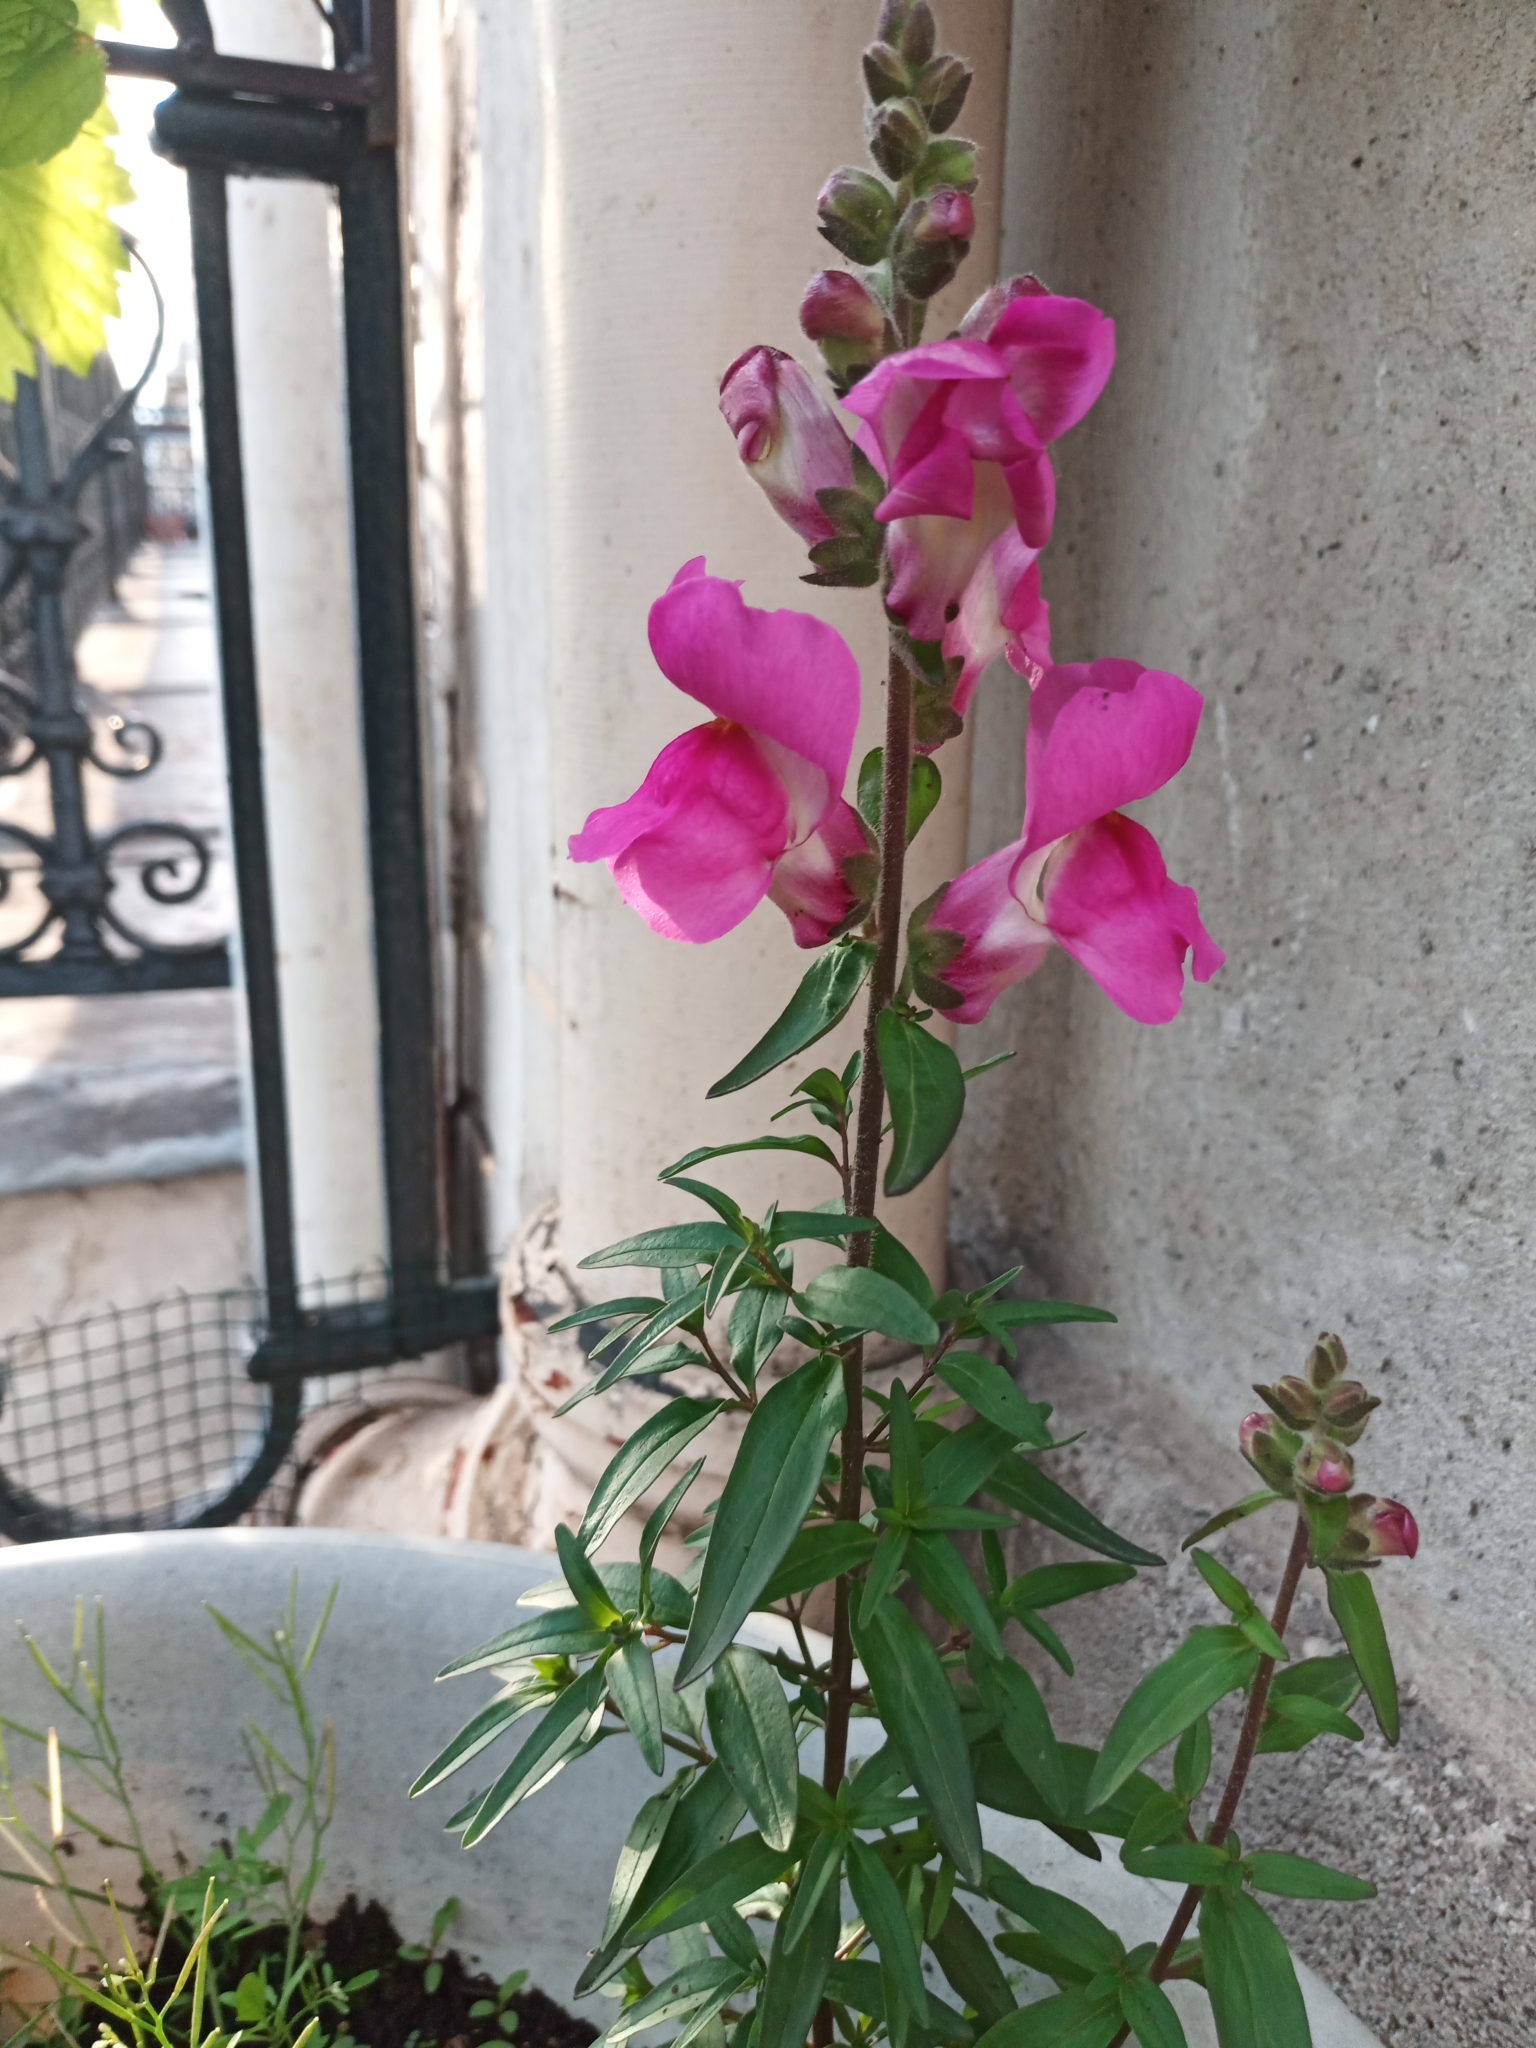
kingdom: Plantae
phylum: Tracheophyta
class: Magnoliopsida
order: Lamiales
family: Plantaginaceae
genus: Antirrhinum
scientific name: Antirrhinum majus
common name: Snapdragon
